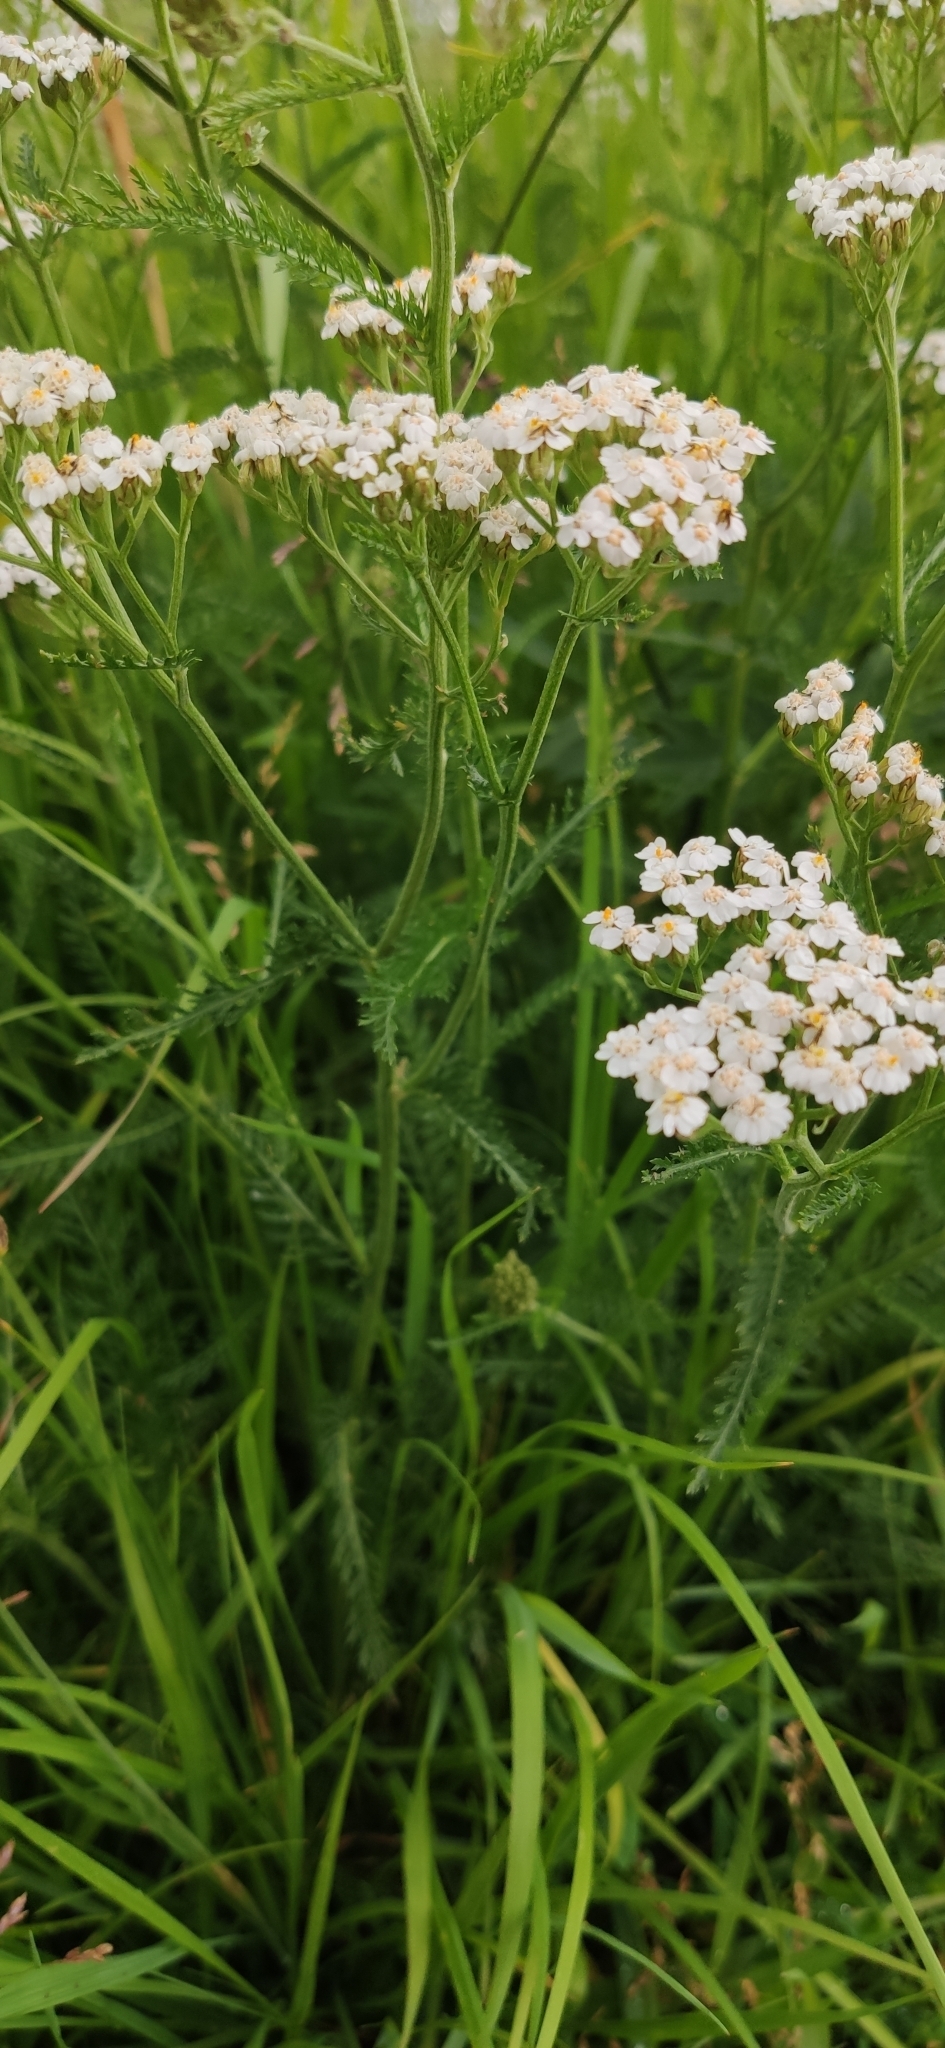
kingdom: Plantae
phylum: Tracheophyta
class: Magnoliopsida
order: Asterales
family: Asteraceae
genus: Achillea
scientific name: Achillea millefolium
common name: Yarrow
